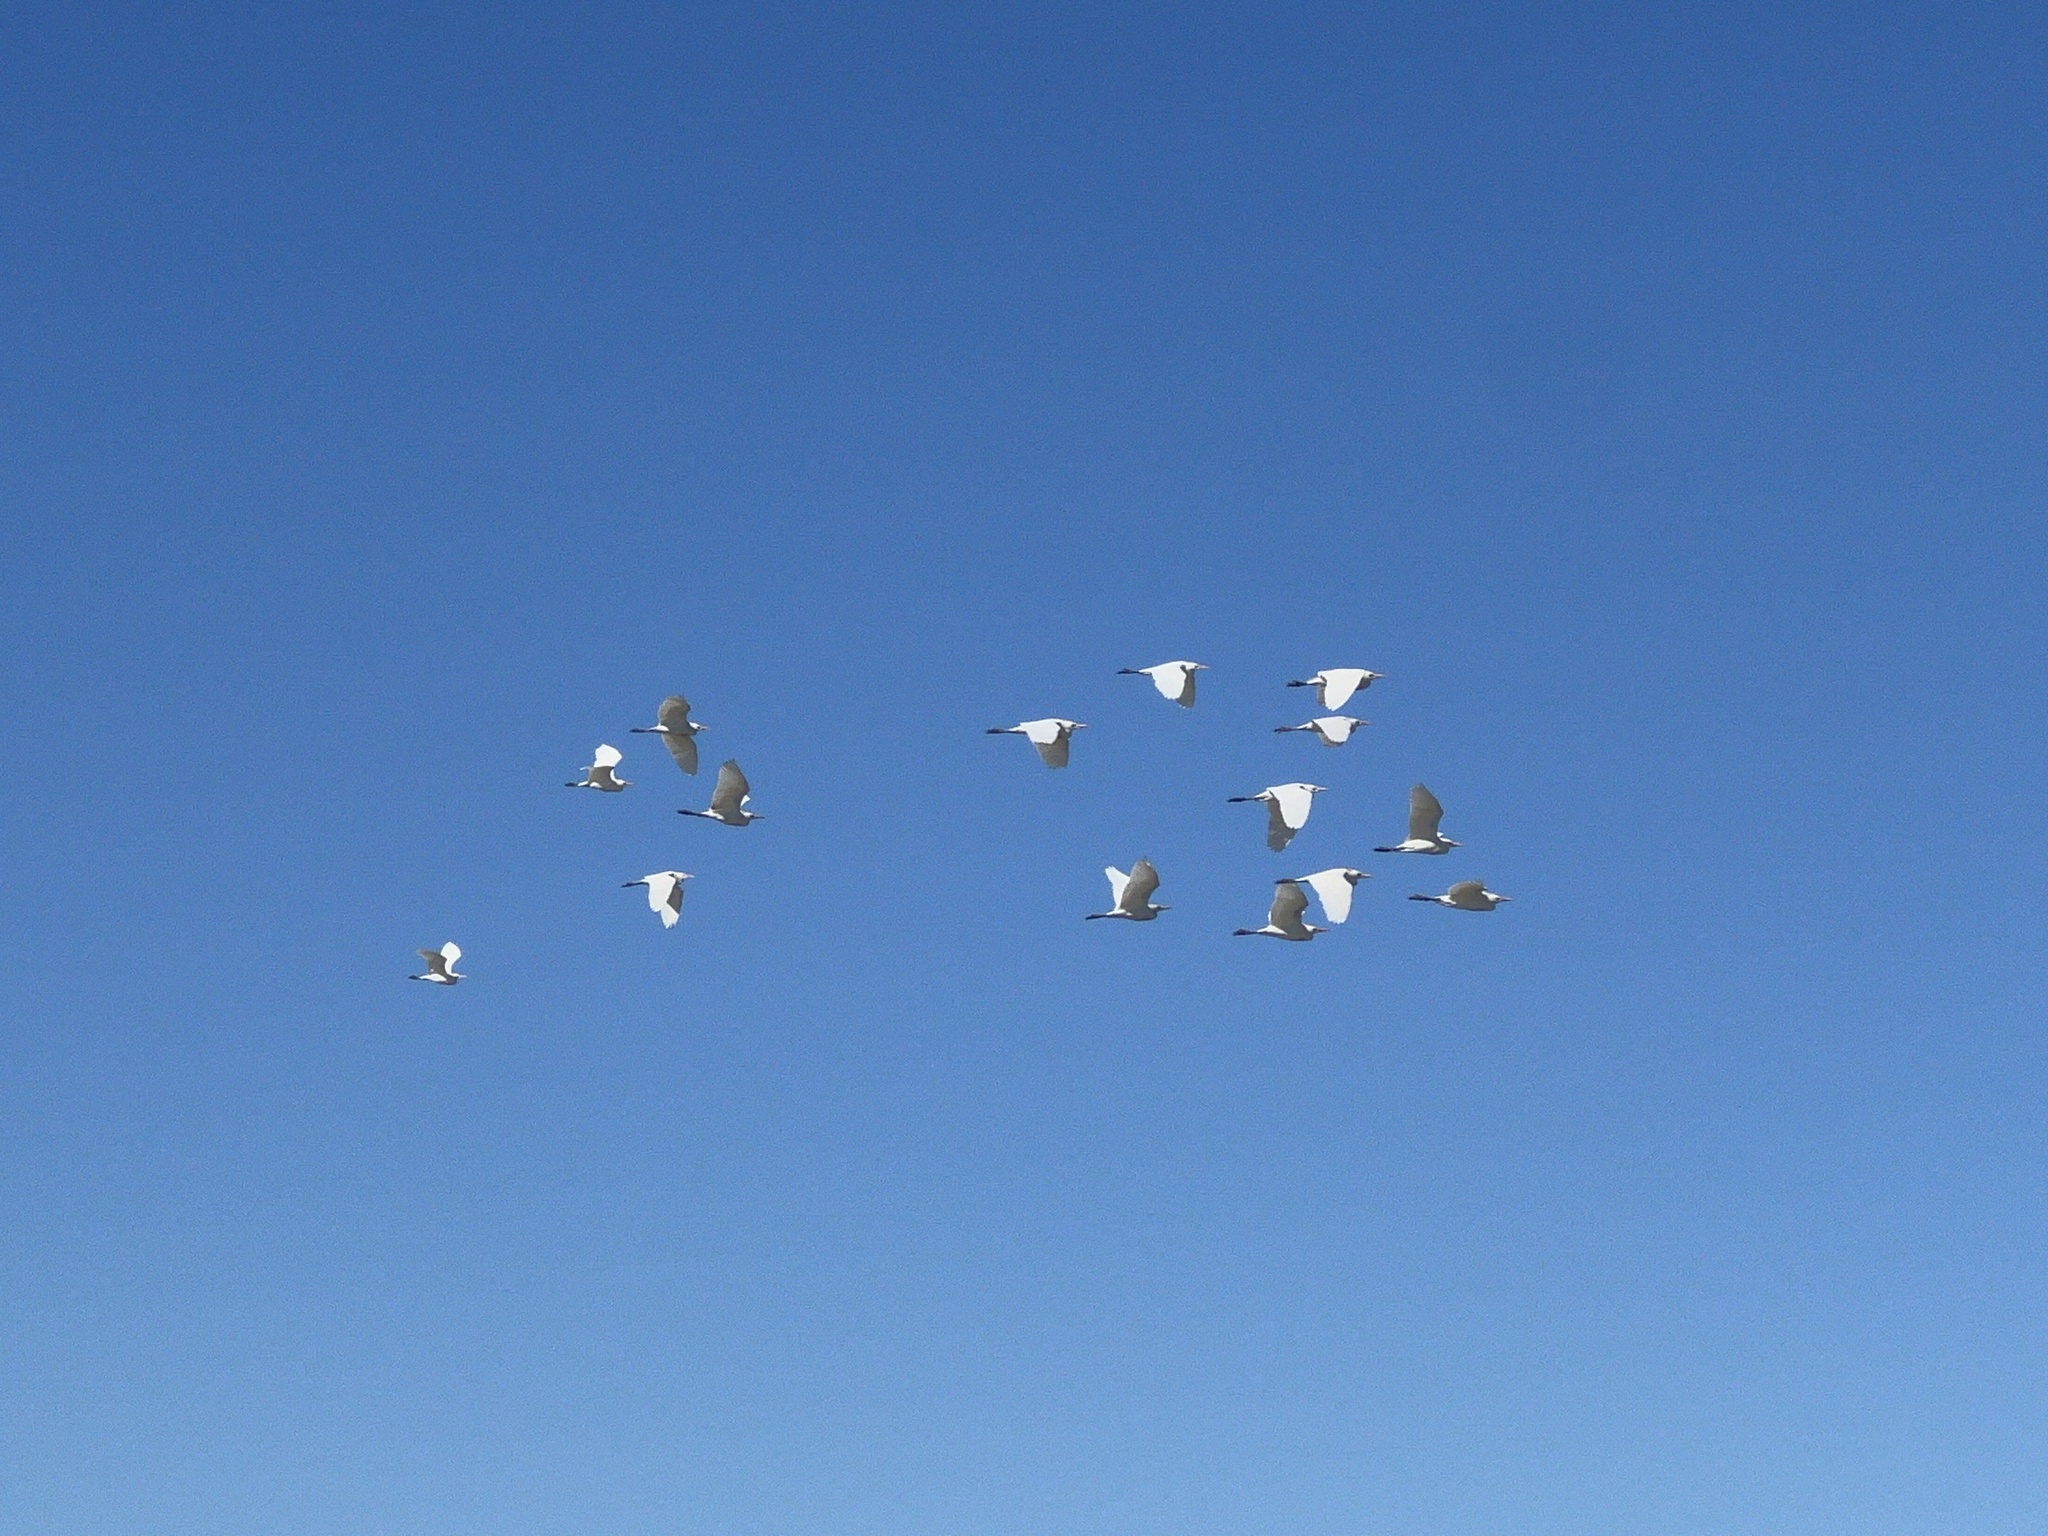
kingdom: Animalia
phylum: Chordata
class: Aves
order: Pelecaniformes
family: Ardeidae
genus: Bubulcus
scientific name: Bubulcus ibis
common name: Cattle egret
